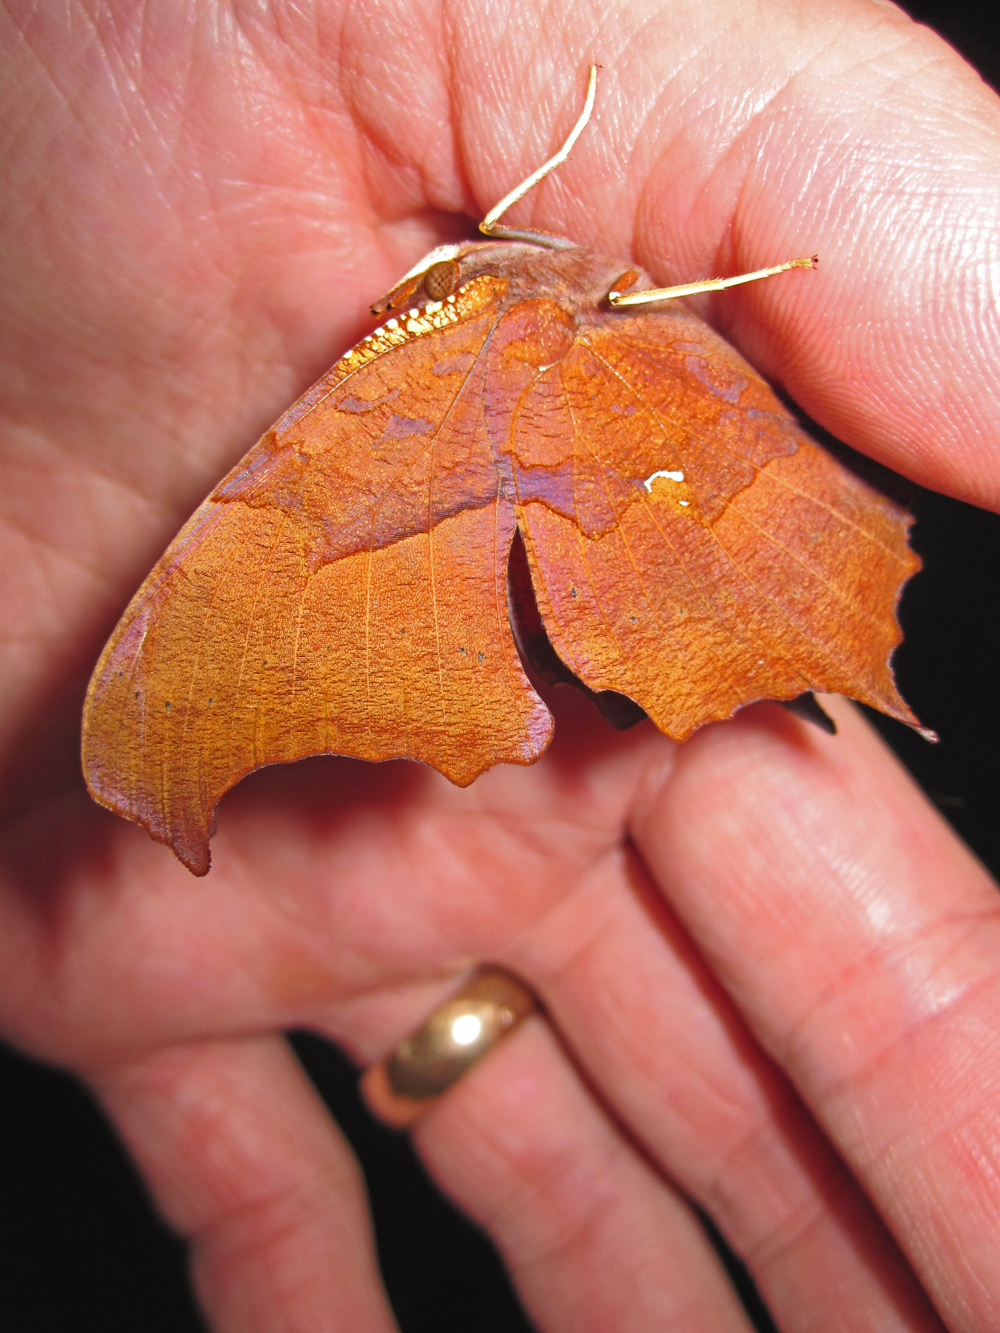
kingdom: Animalia
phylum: Arthropoda
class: Insecta
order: Lepidoptera
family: Nymphalidae
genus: Polygonia
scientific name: Polygonia interrogationis
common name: Question mark
